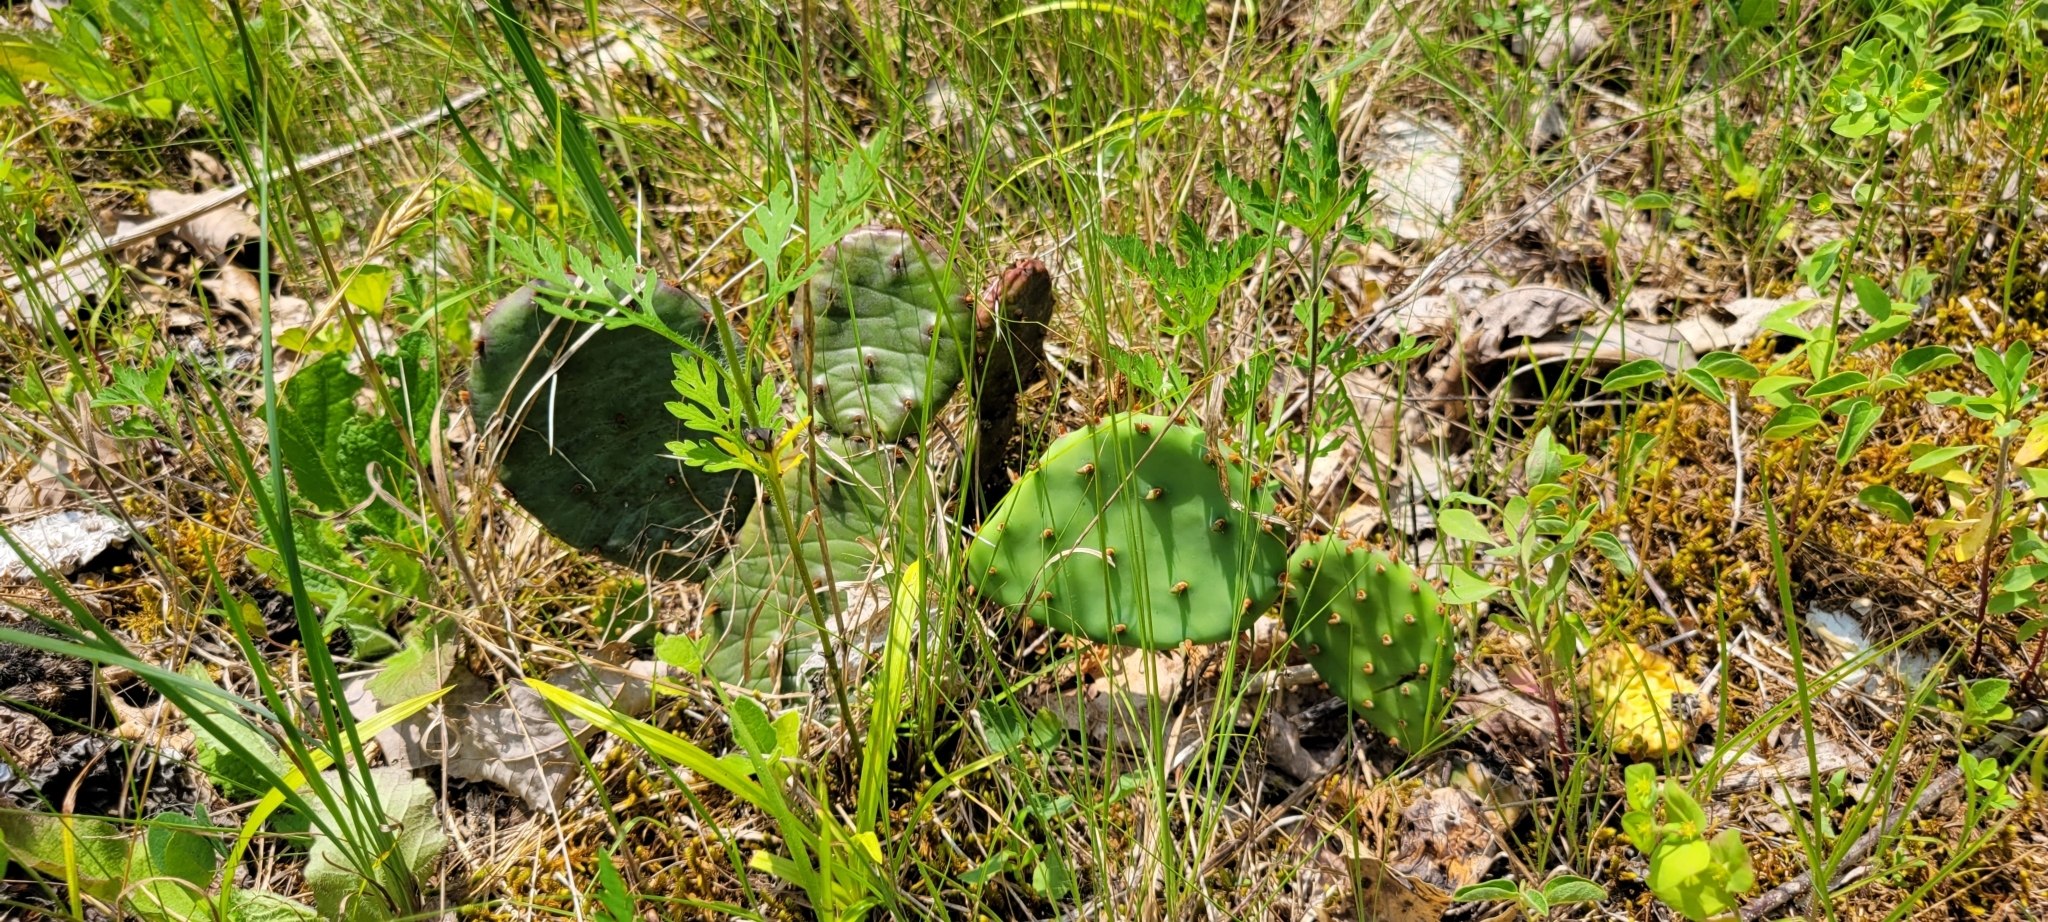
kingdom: Plantae
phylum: Tracheophyta
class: Magnoliopsida
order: Caryophyllales
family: Cactaceae
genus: Opuntia
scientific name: Opuntia humifusa
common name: Eastern prickly-pear
